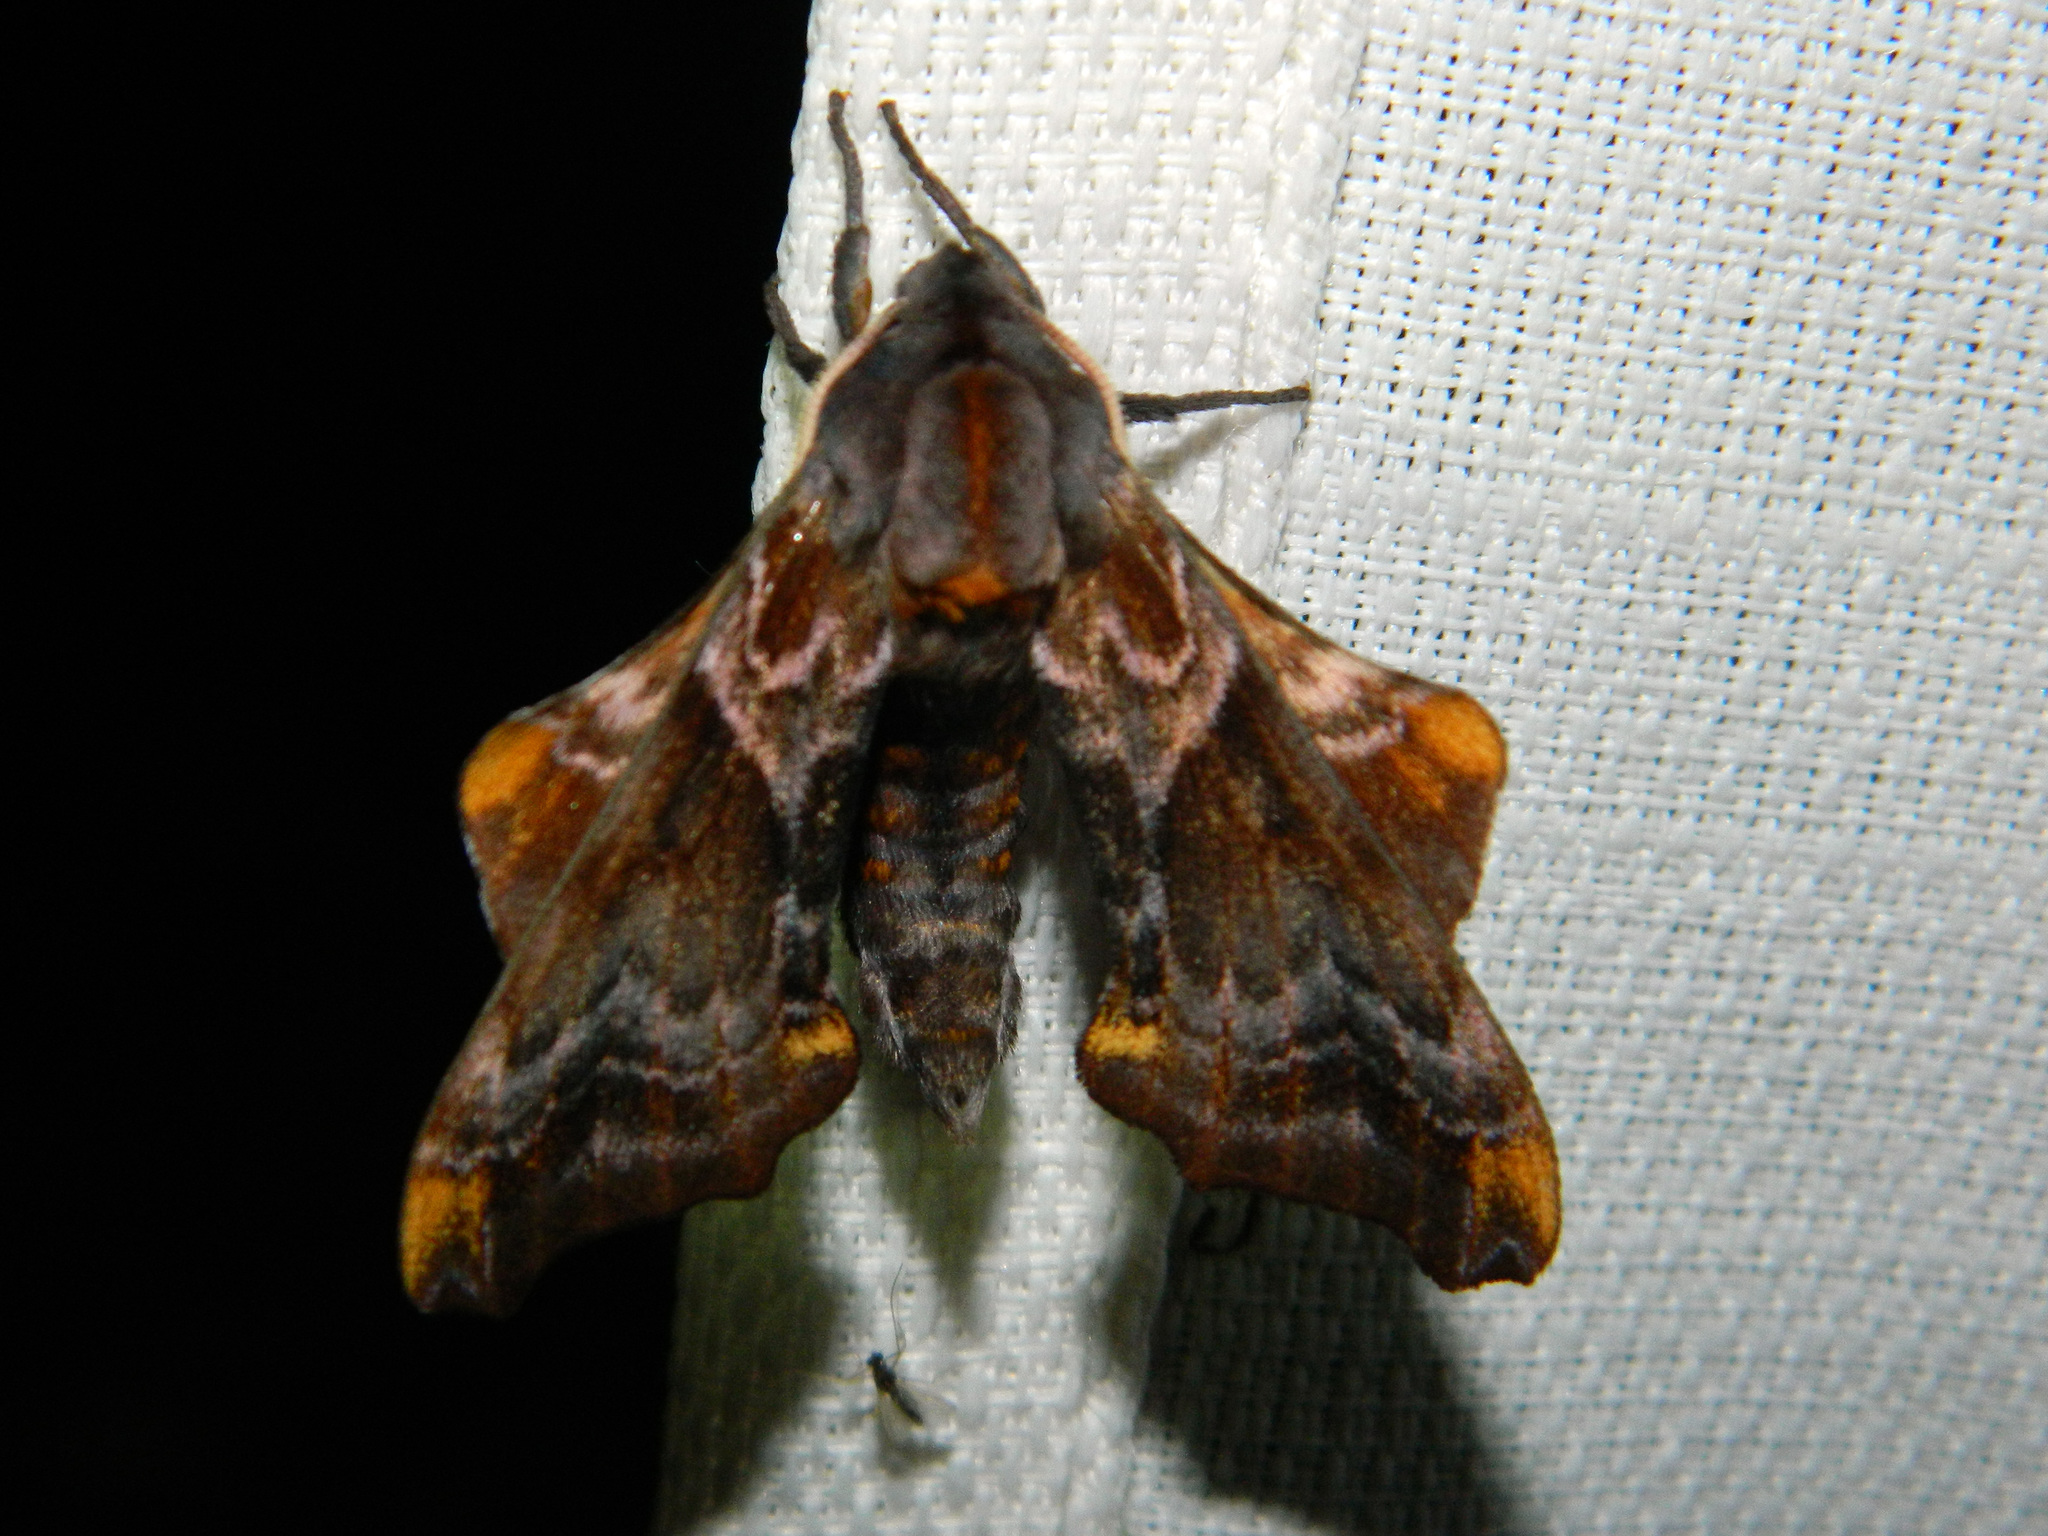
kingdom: Animalia
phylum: Arthropoda
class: Insecta
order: Lepidoptera
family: Sphingidae
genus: Paonias
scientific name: Paonias myops
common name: Small-eyed sphinx
